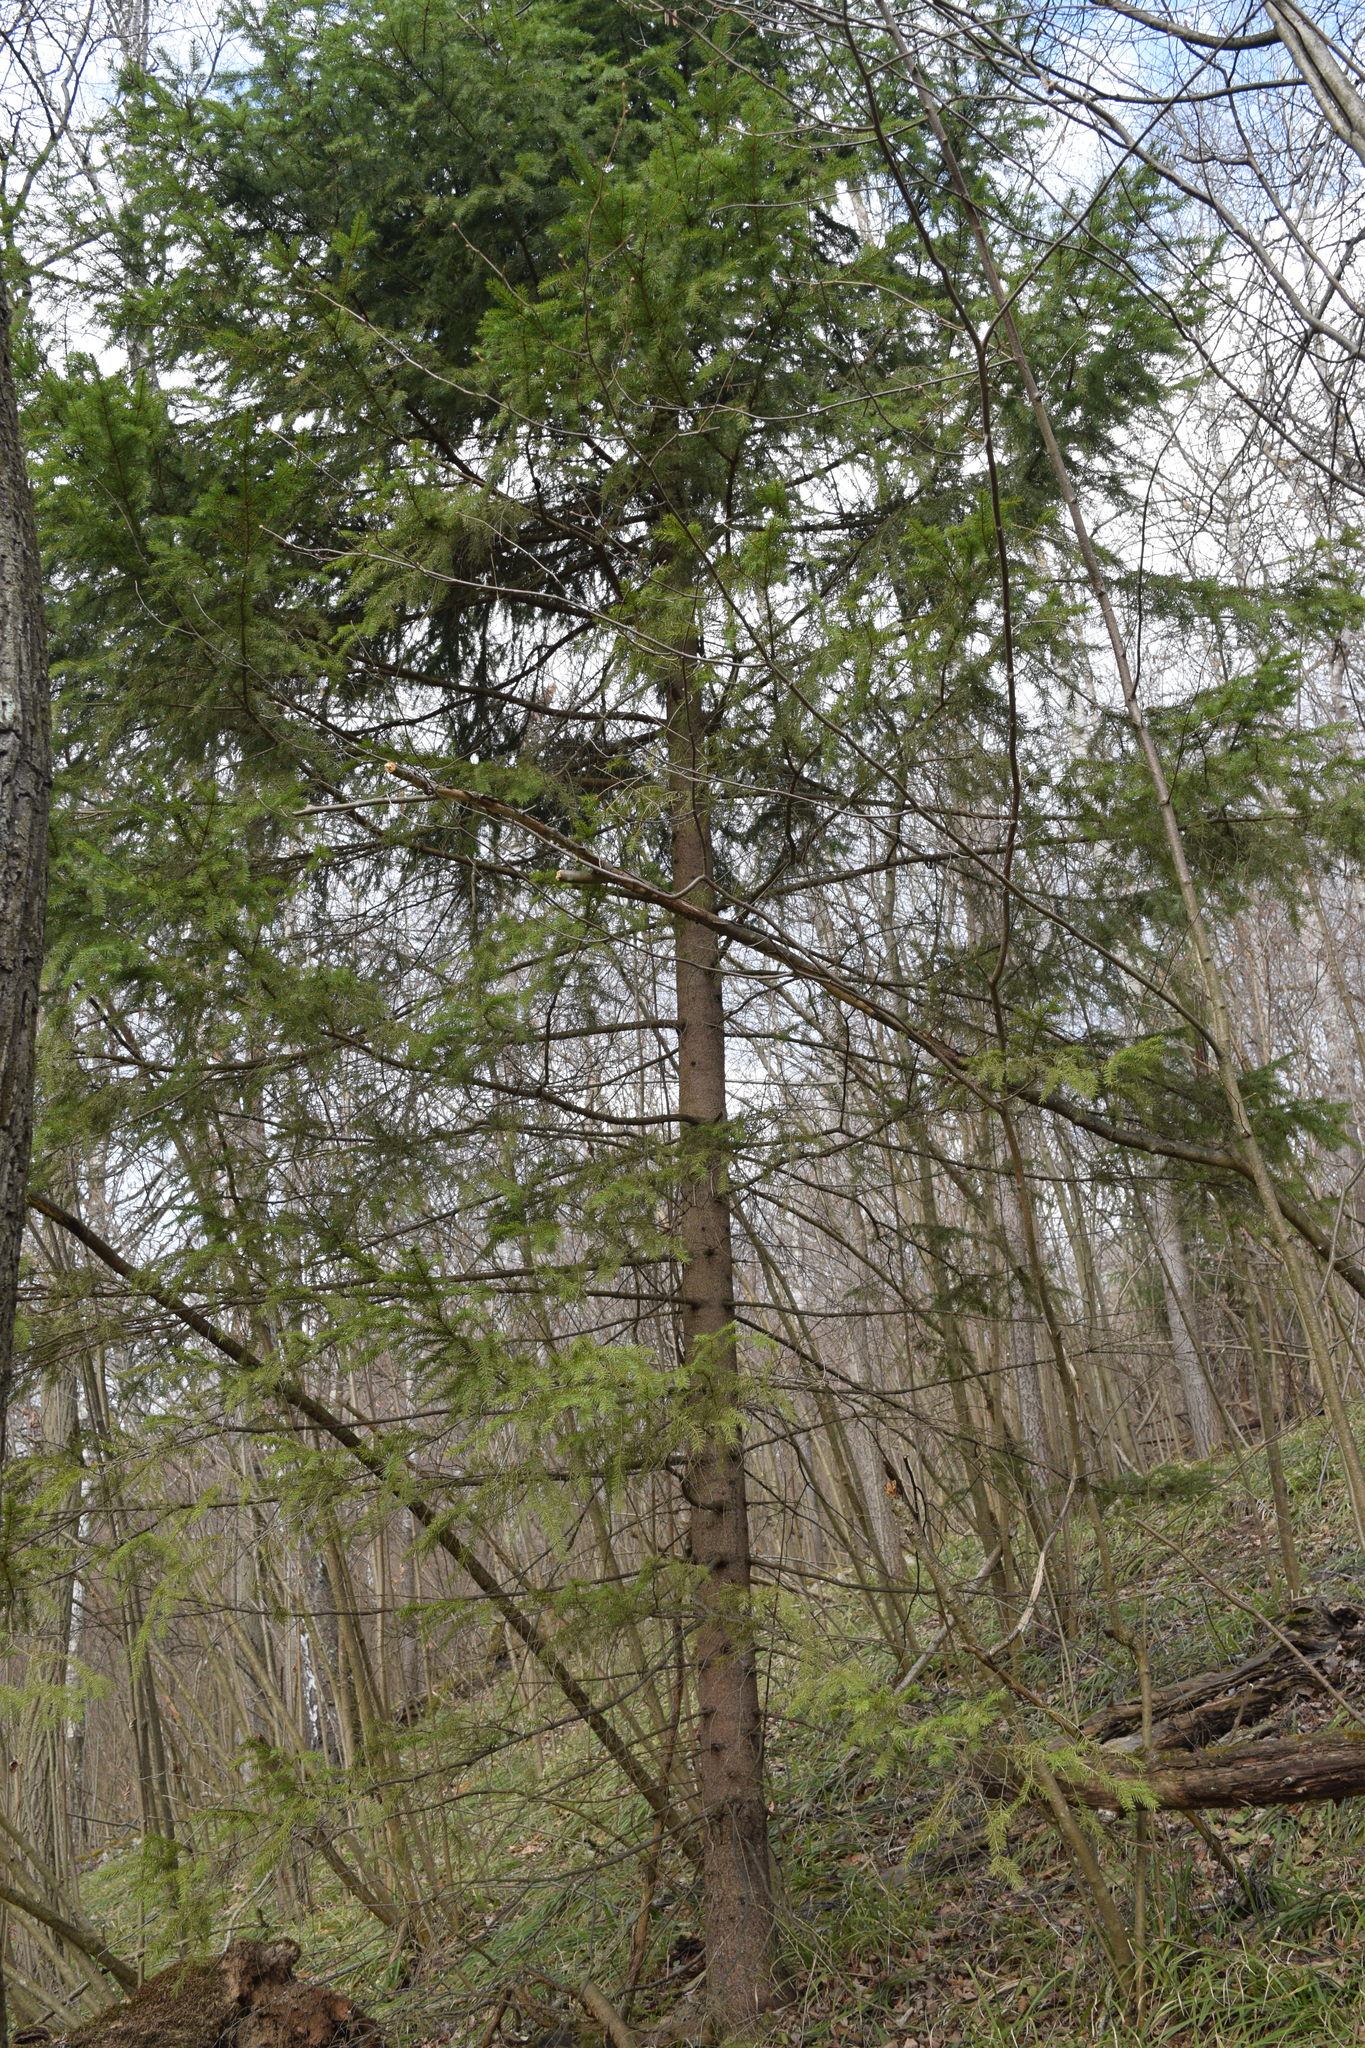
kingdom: Plantae
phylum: Tracheophyta
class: Pinopsida
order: Pinales
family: Pinaceae
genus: Picea
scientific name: Picea abies
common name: Norway spruce
